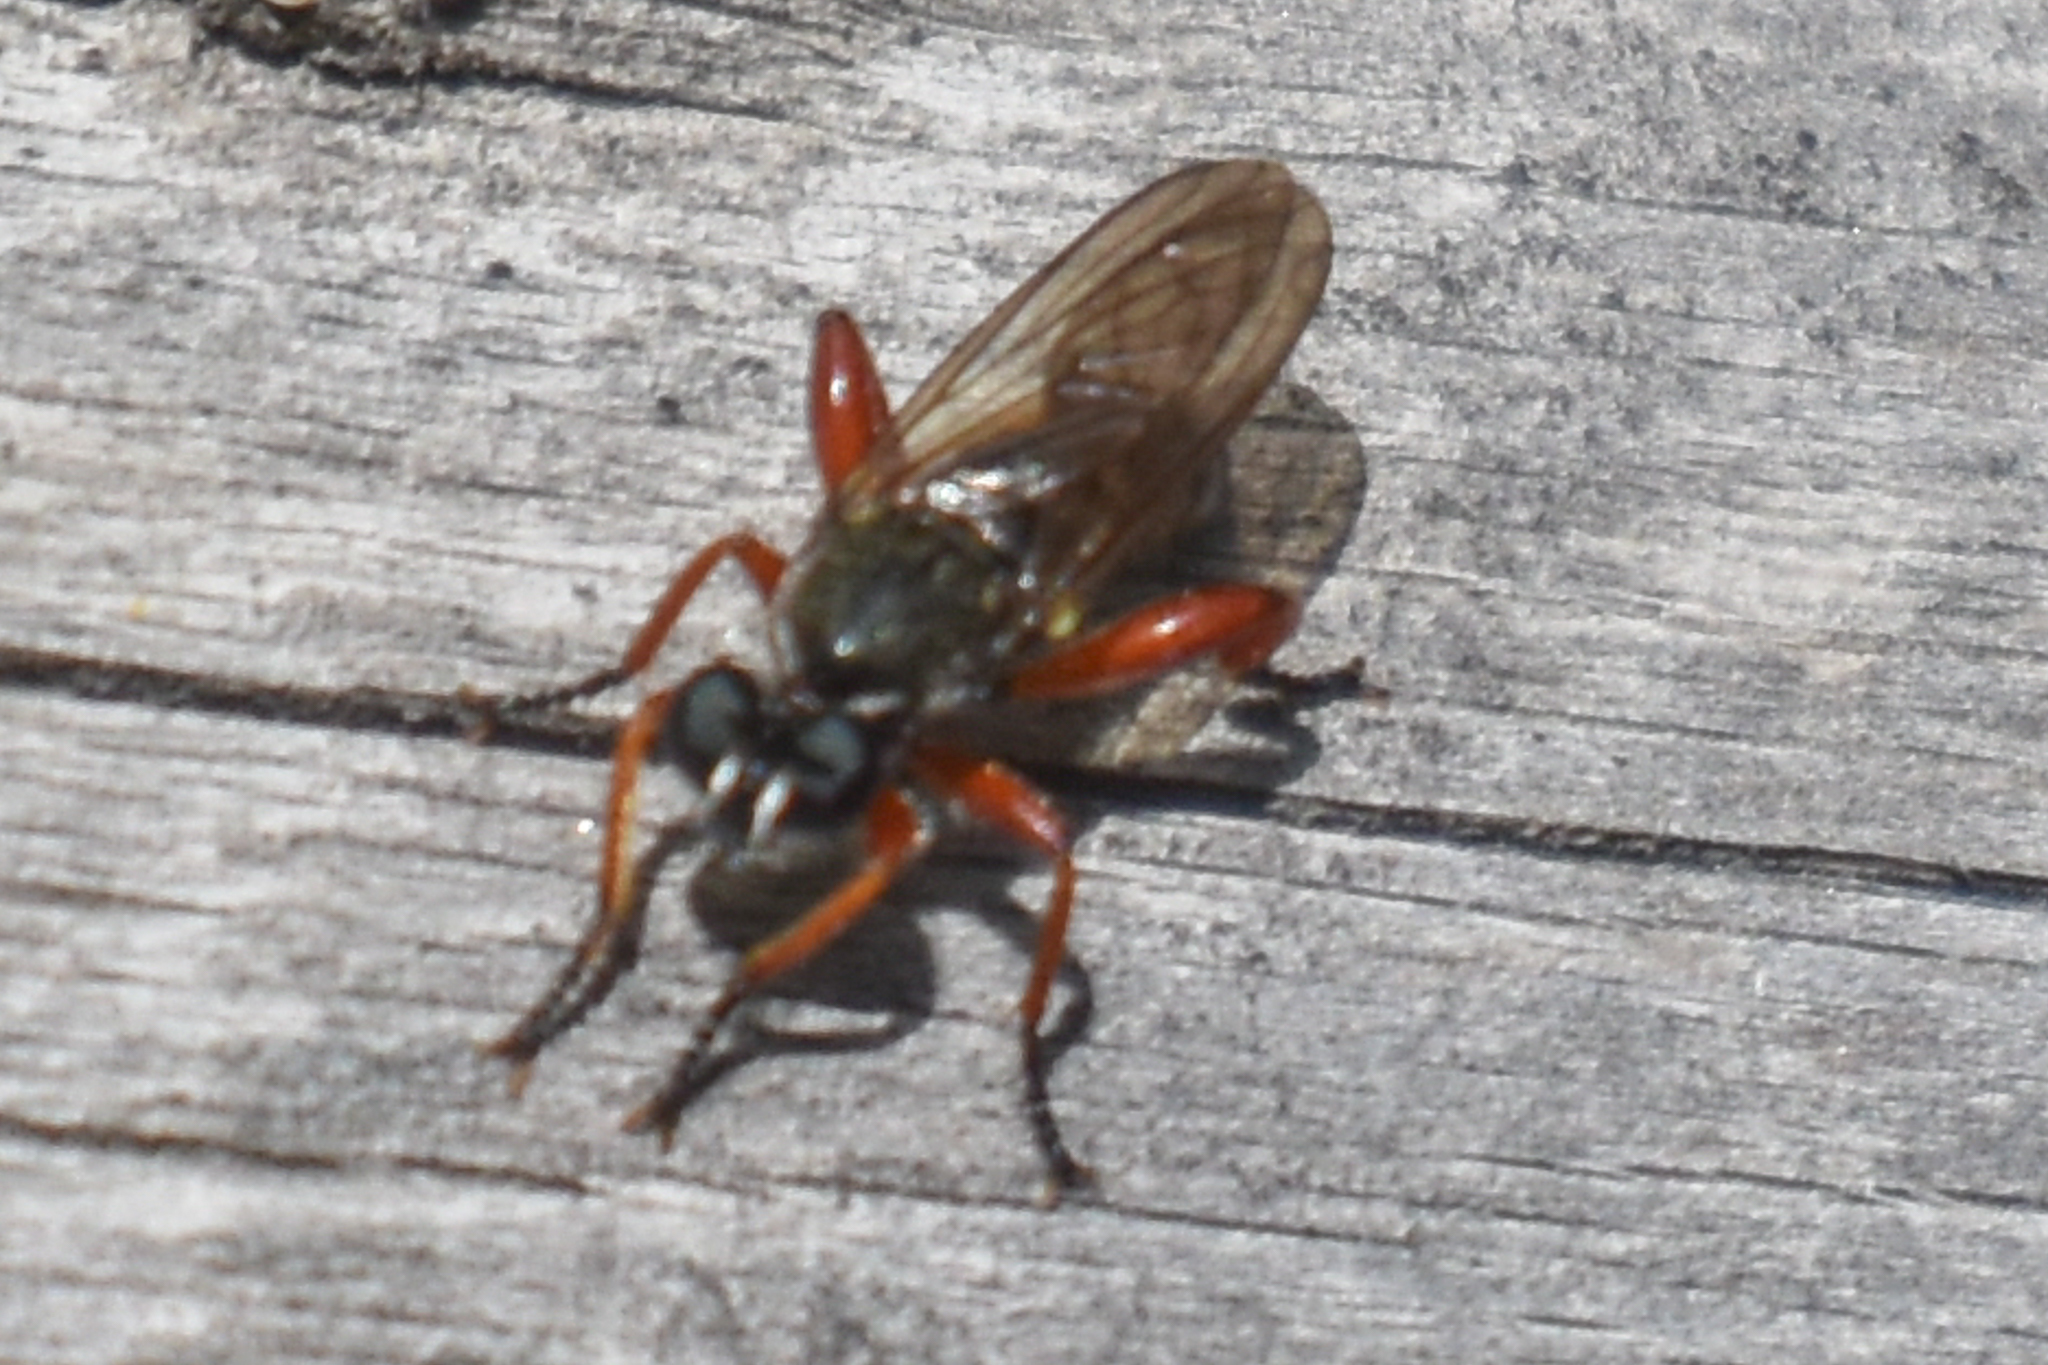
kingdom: Animalia
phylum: Arthropoda
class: Insecta
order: Diptera
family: Asilidae
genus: Laphria
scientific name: Laphria sadales
